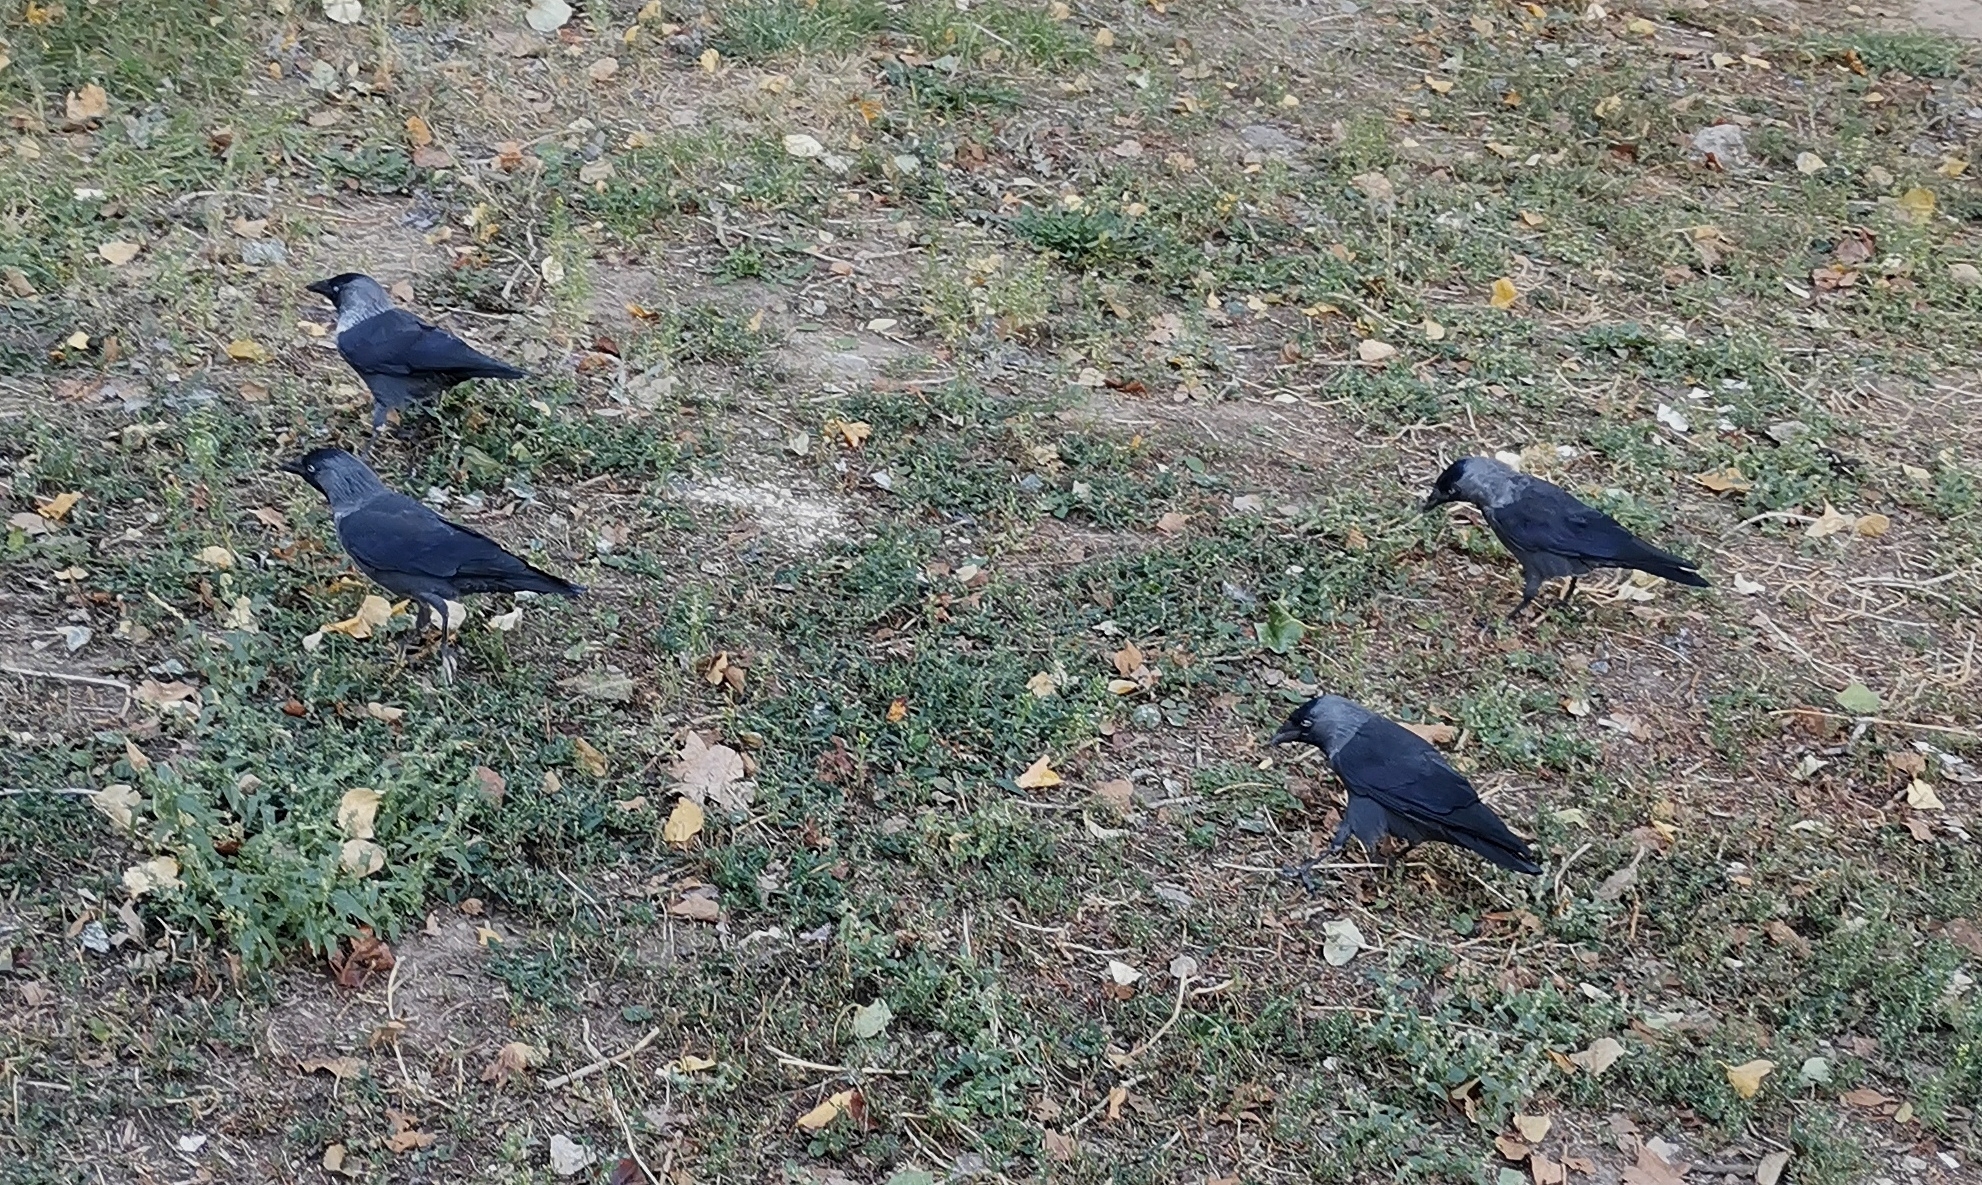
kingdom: Animalia
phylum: Chordata
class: Aves
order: Passeriformes
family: Corvidae
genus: Coloeus
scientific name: Coloeus monedula
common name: Western jackdaw
